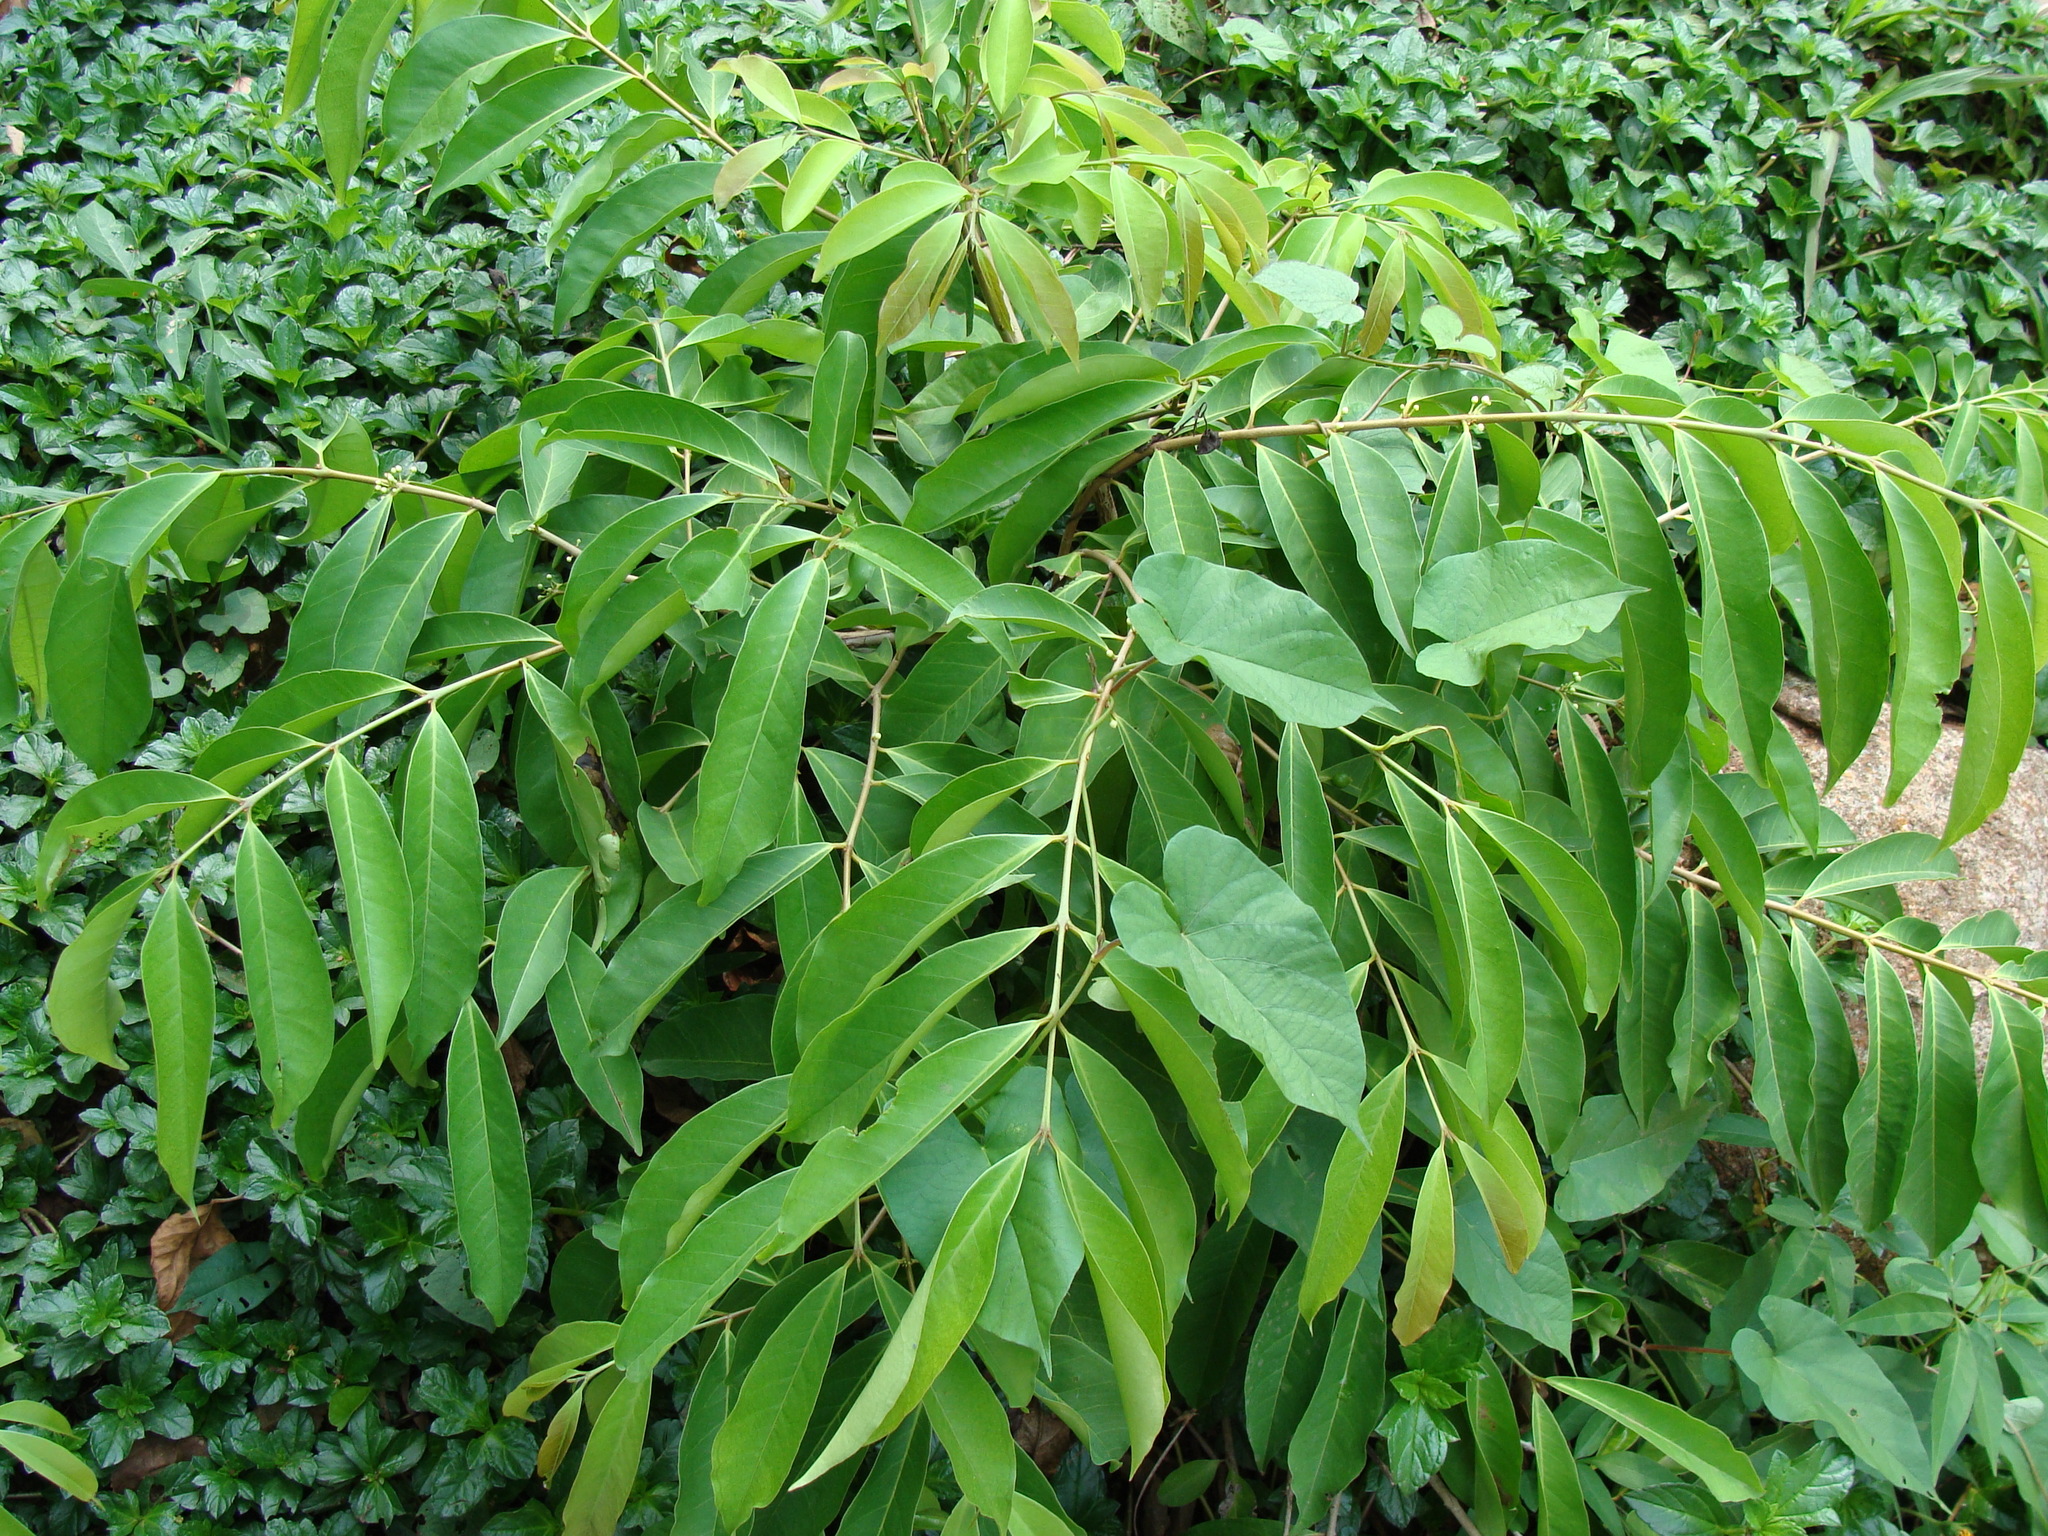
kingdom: Plantae
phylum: Tracheophyta
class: Magnoliopsida
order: Myrtales
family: Myrtaceae
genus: Eugenia
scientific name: Eugenia choapamensis
